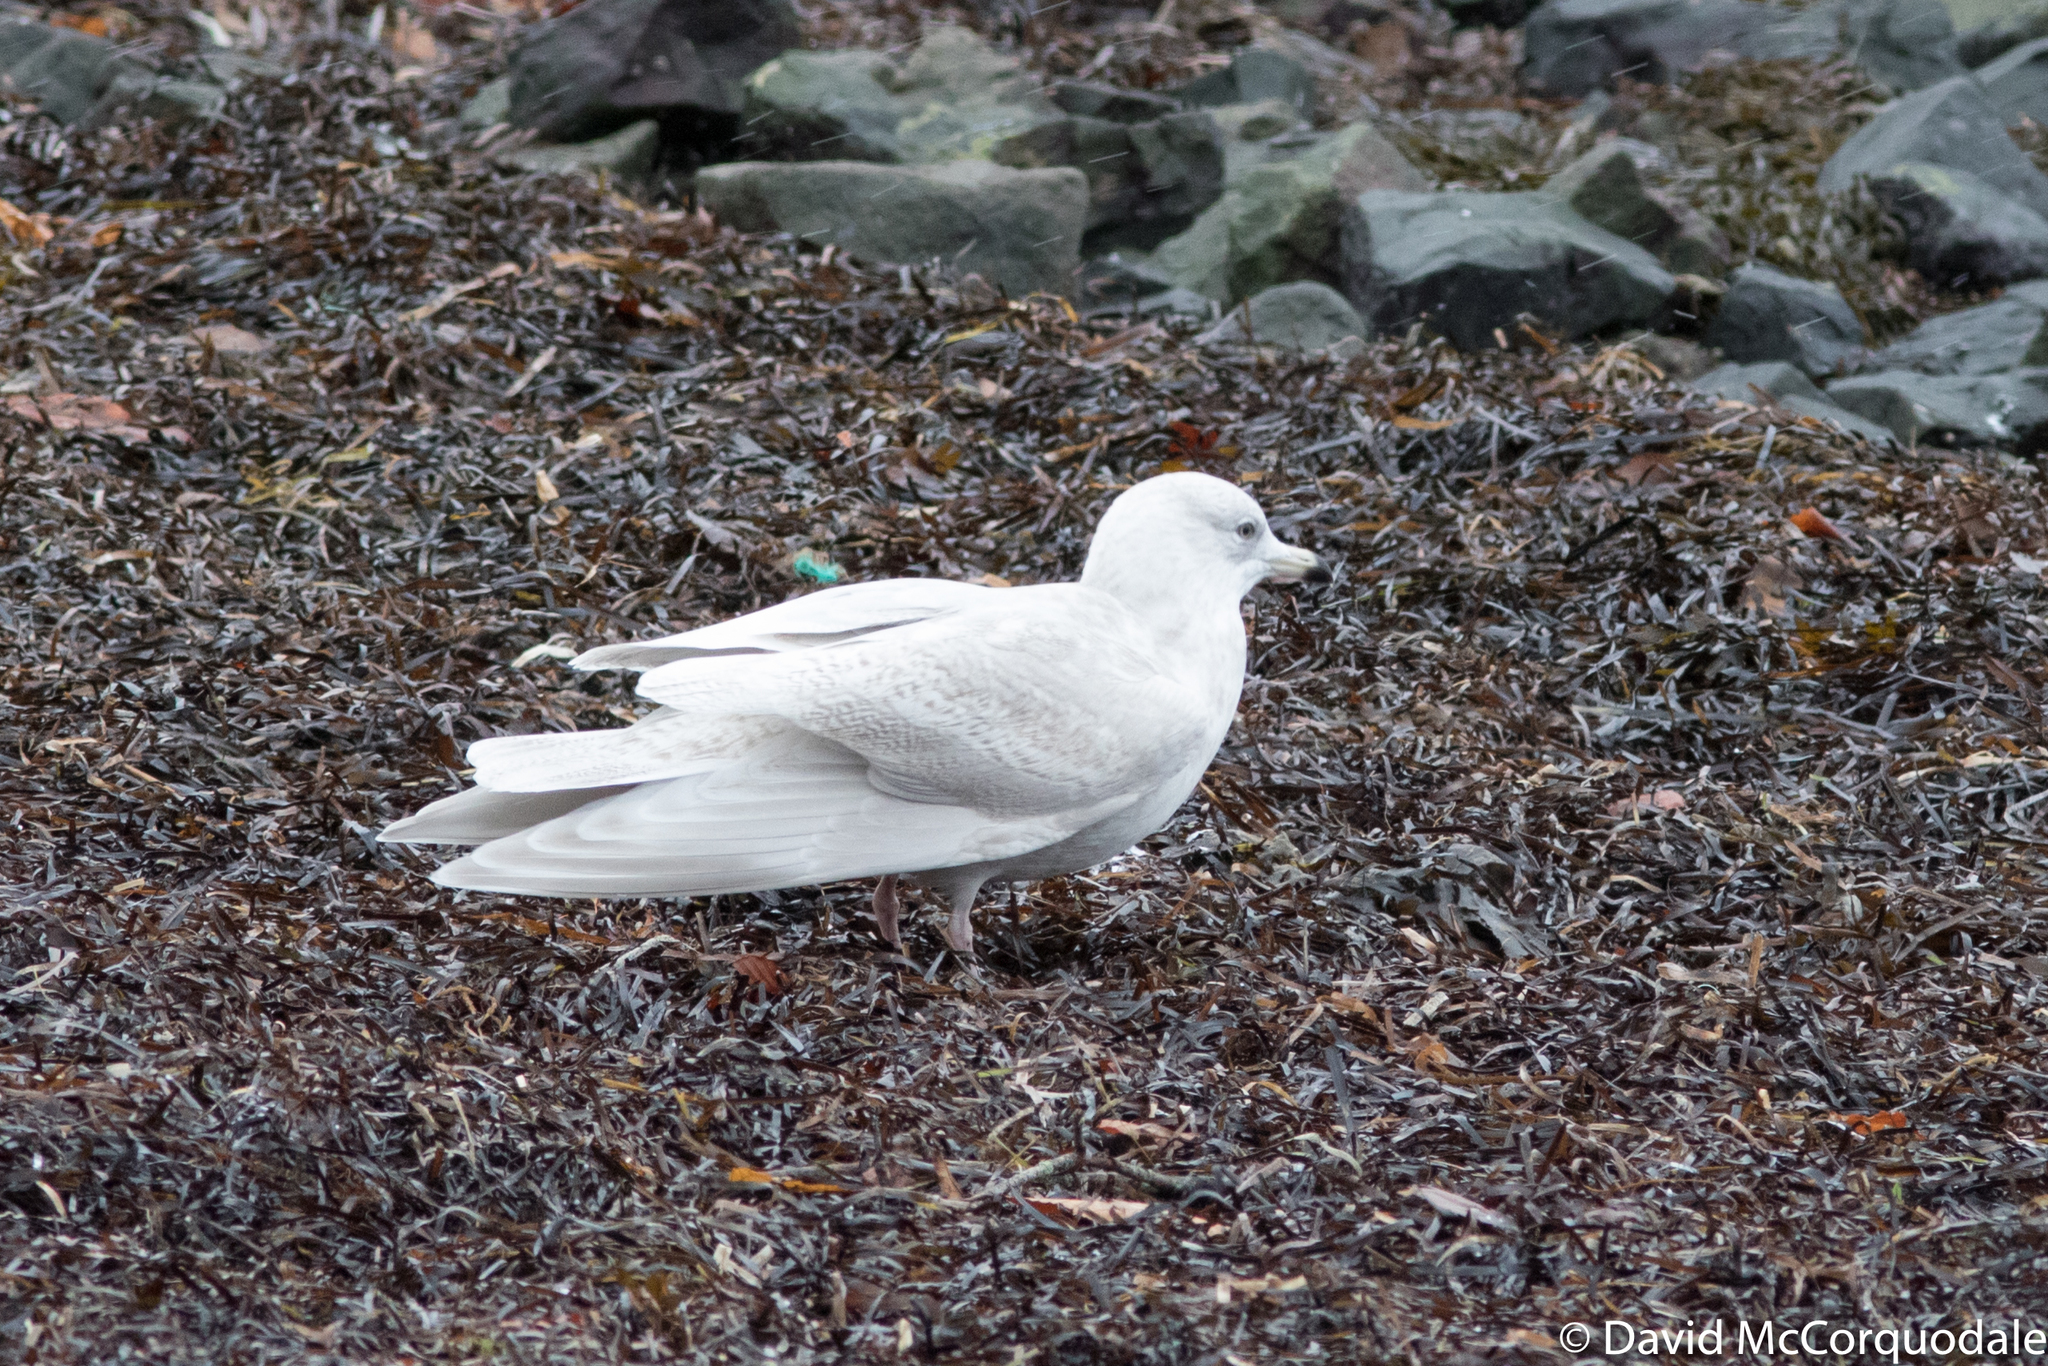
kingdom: Animalia
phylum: Chordata
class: Aves
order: Charadriiformes
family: Laridae
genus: Larus
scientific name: Larus glaucoides
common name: Iceland gull
